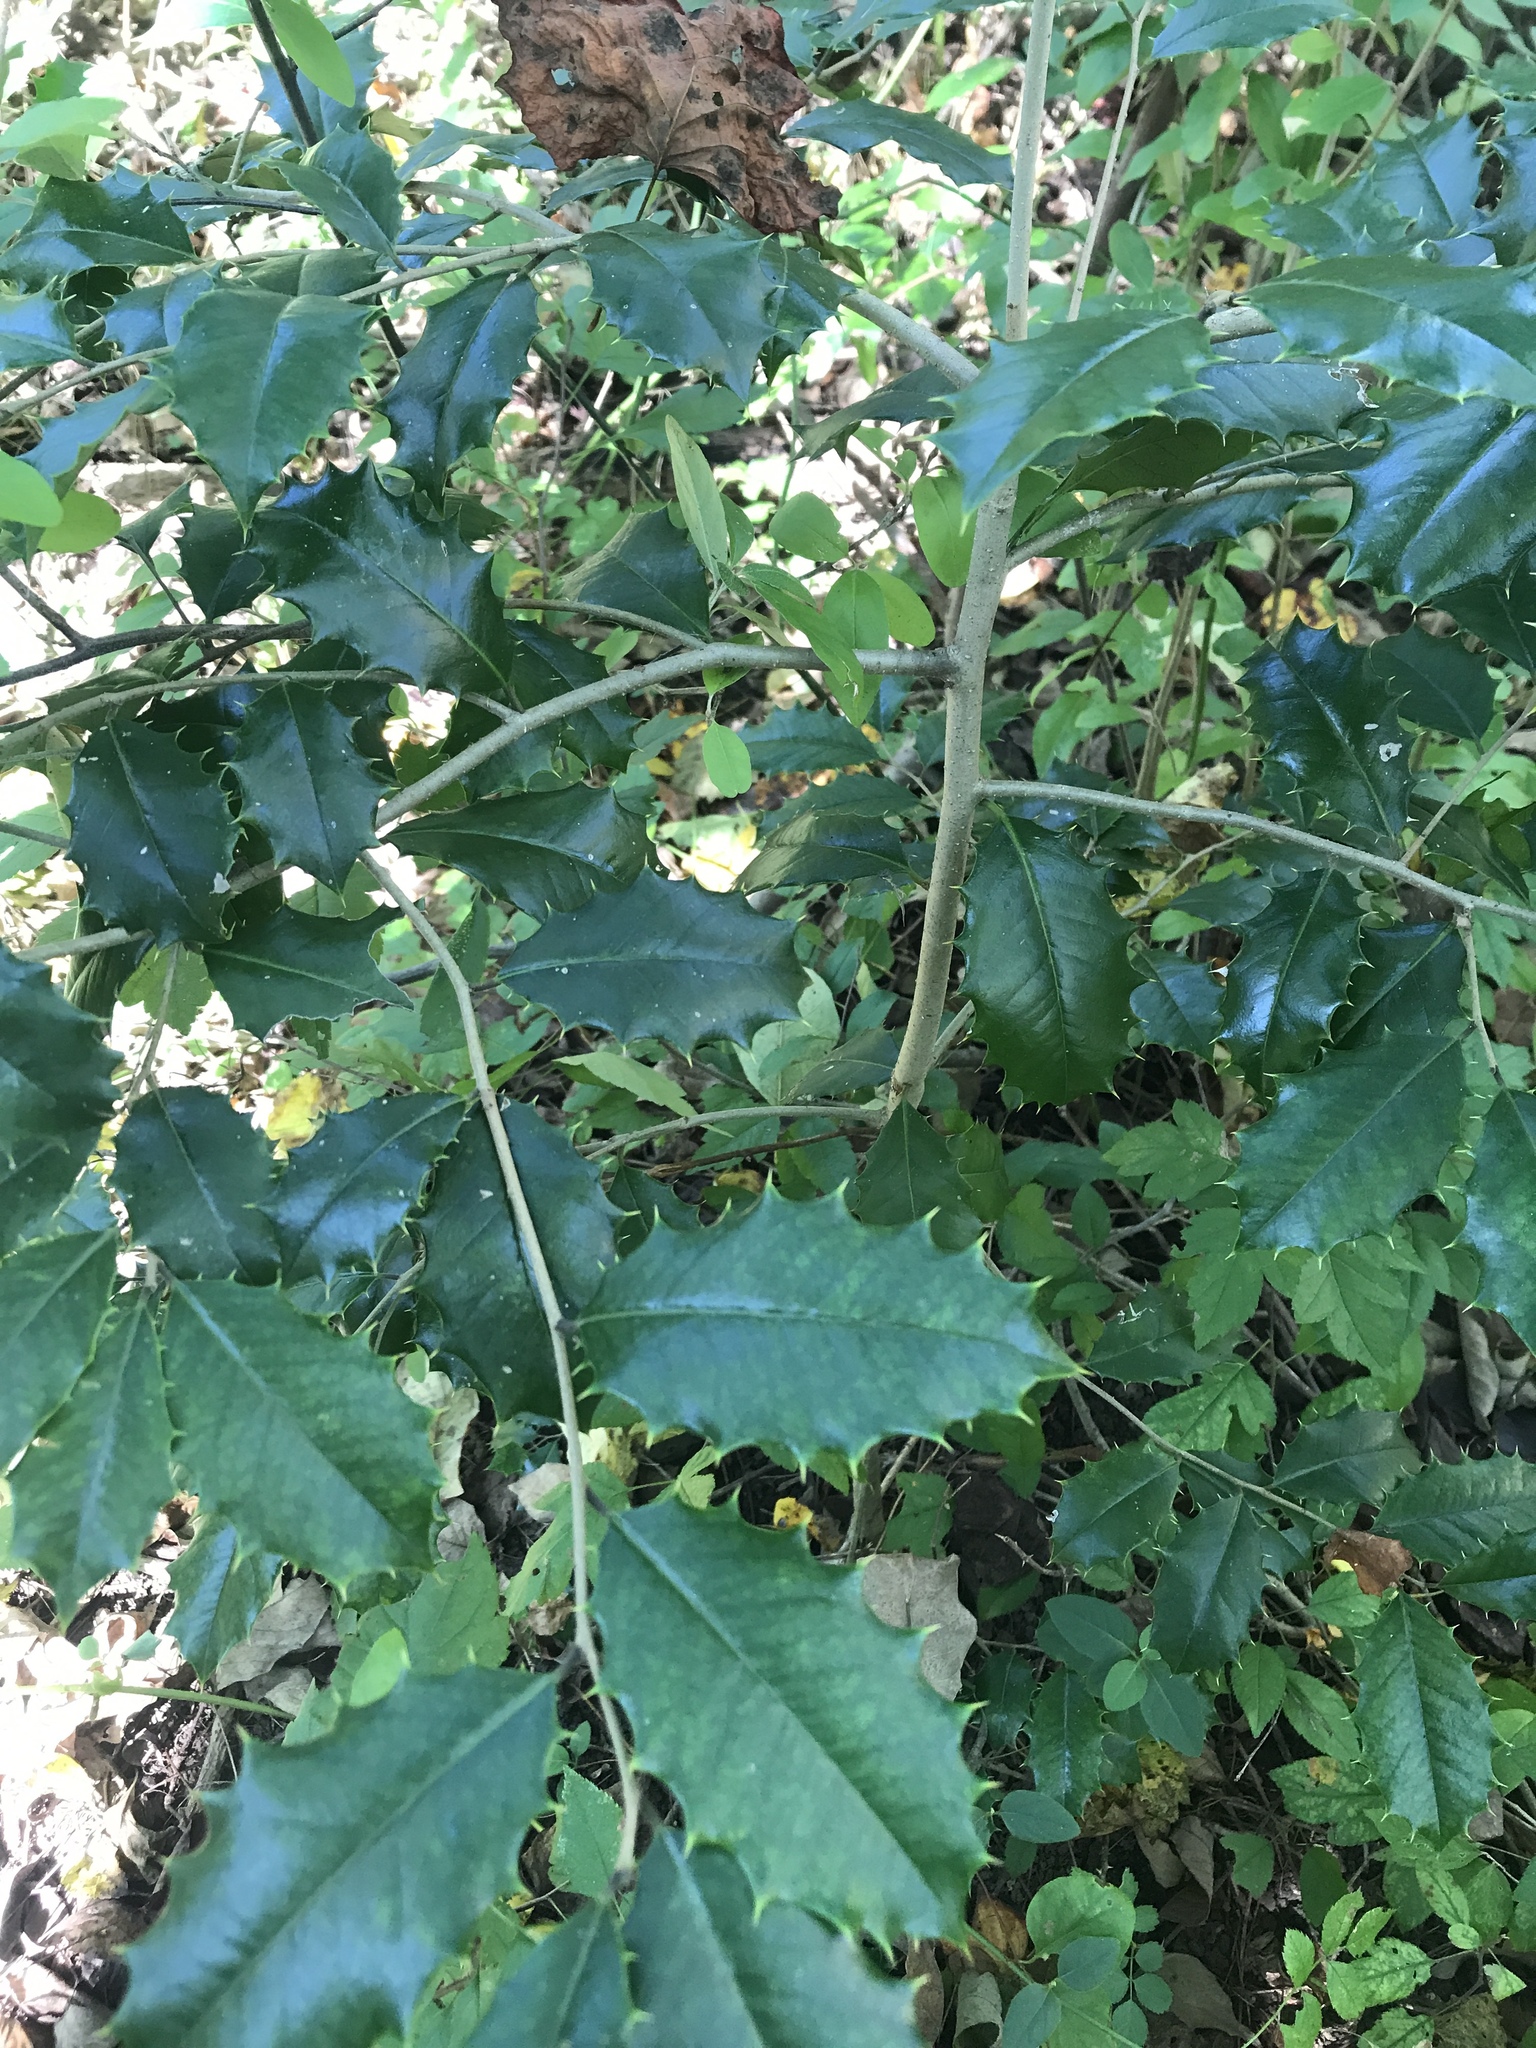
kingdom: Plantae
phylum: Tracheophyta
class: Magnoliopsida
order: Aquifoliales
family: Aquifoliaceae
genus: Ilex
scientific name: Ilex opaca
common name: American holly
